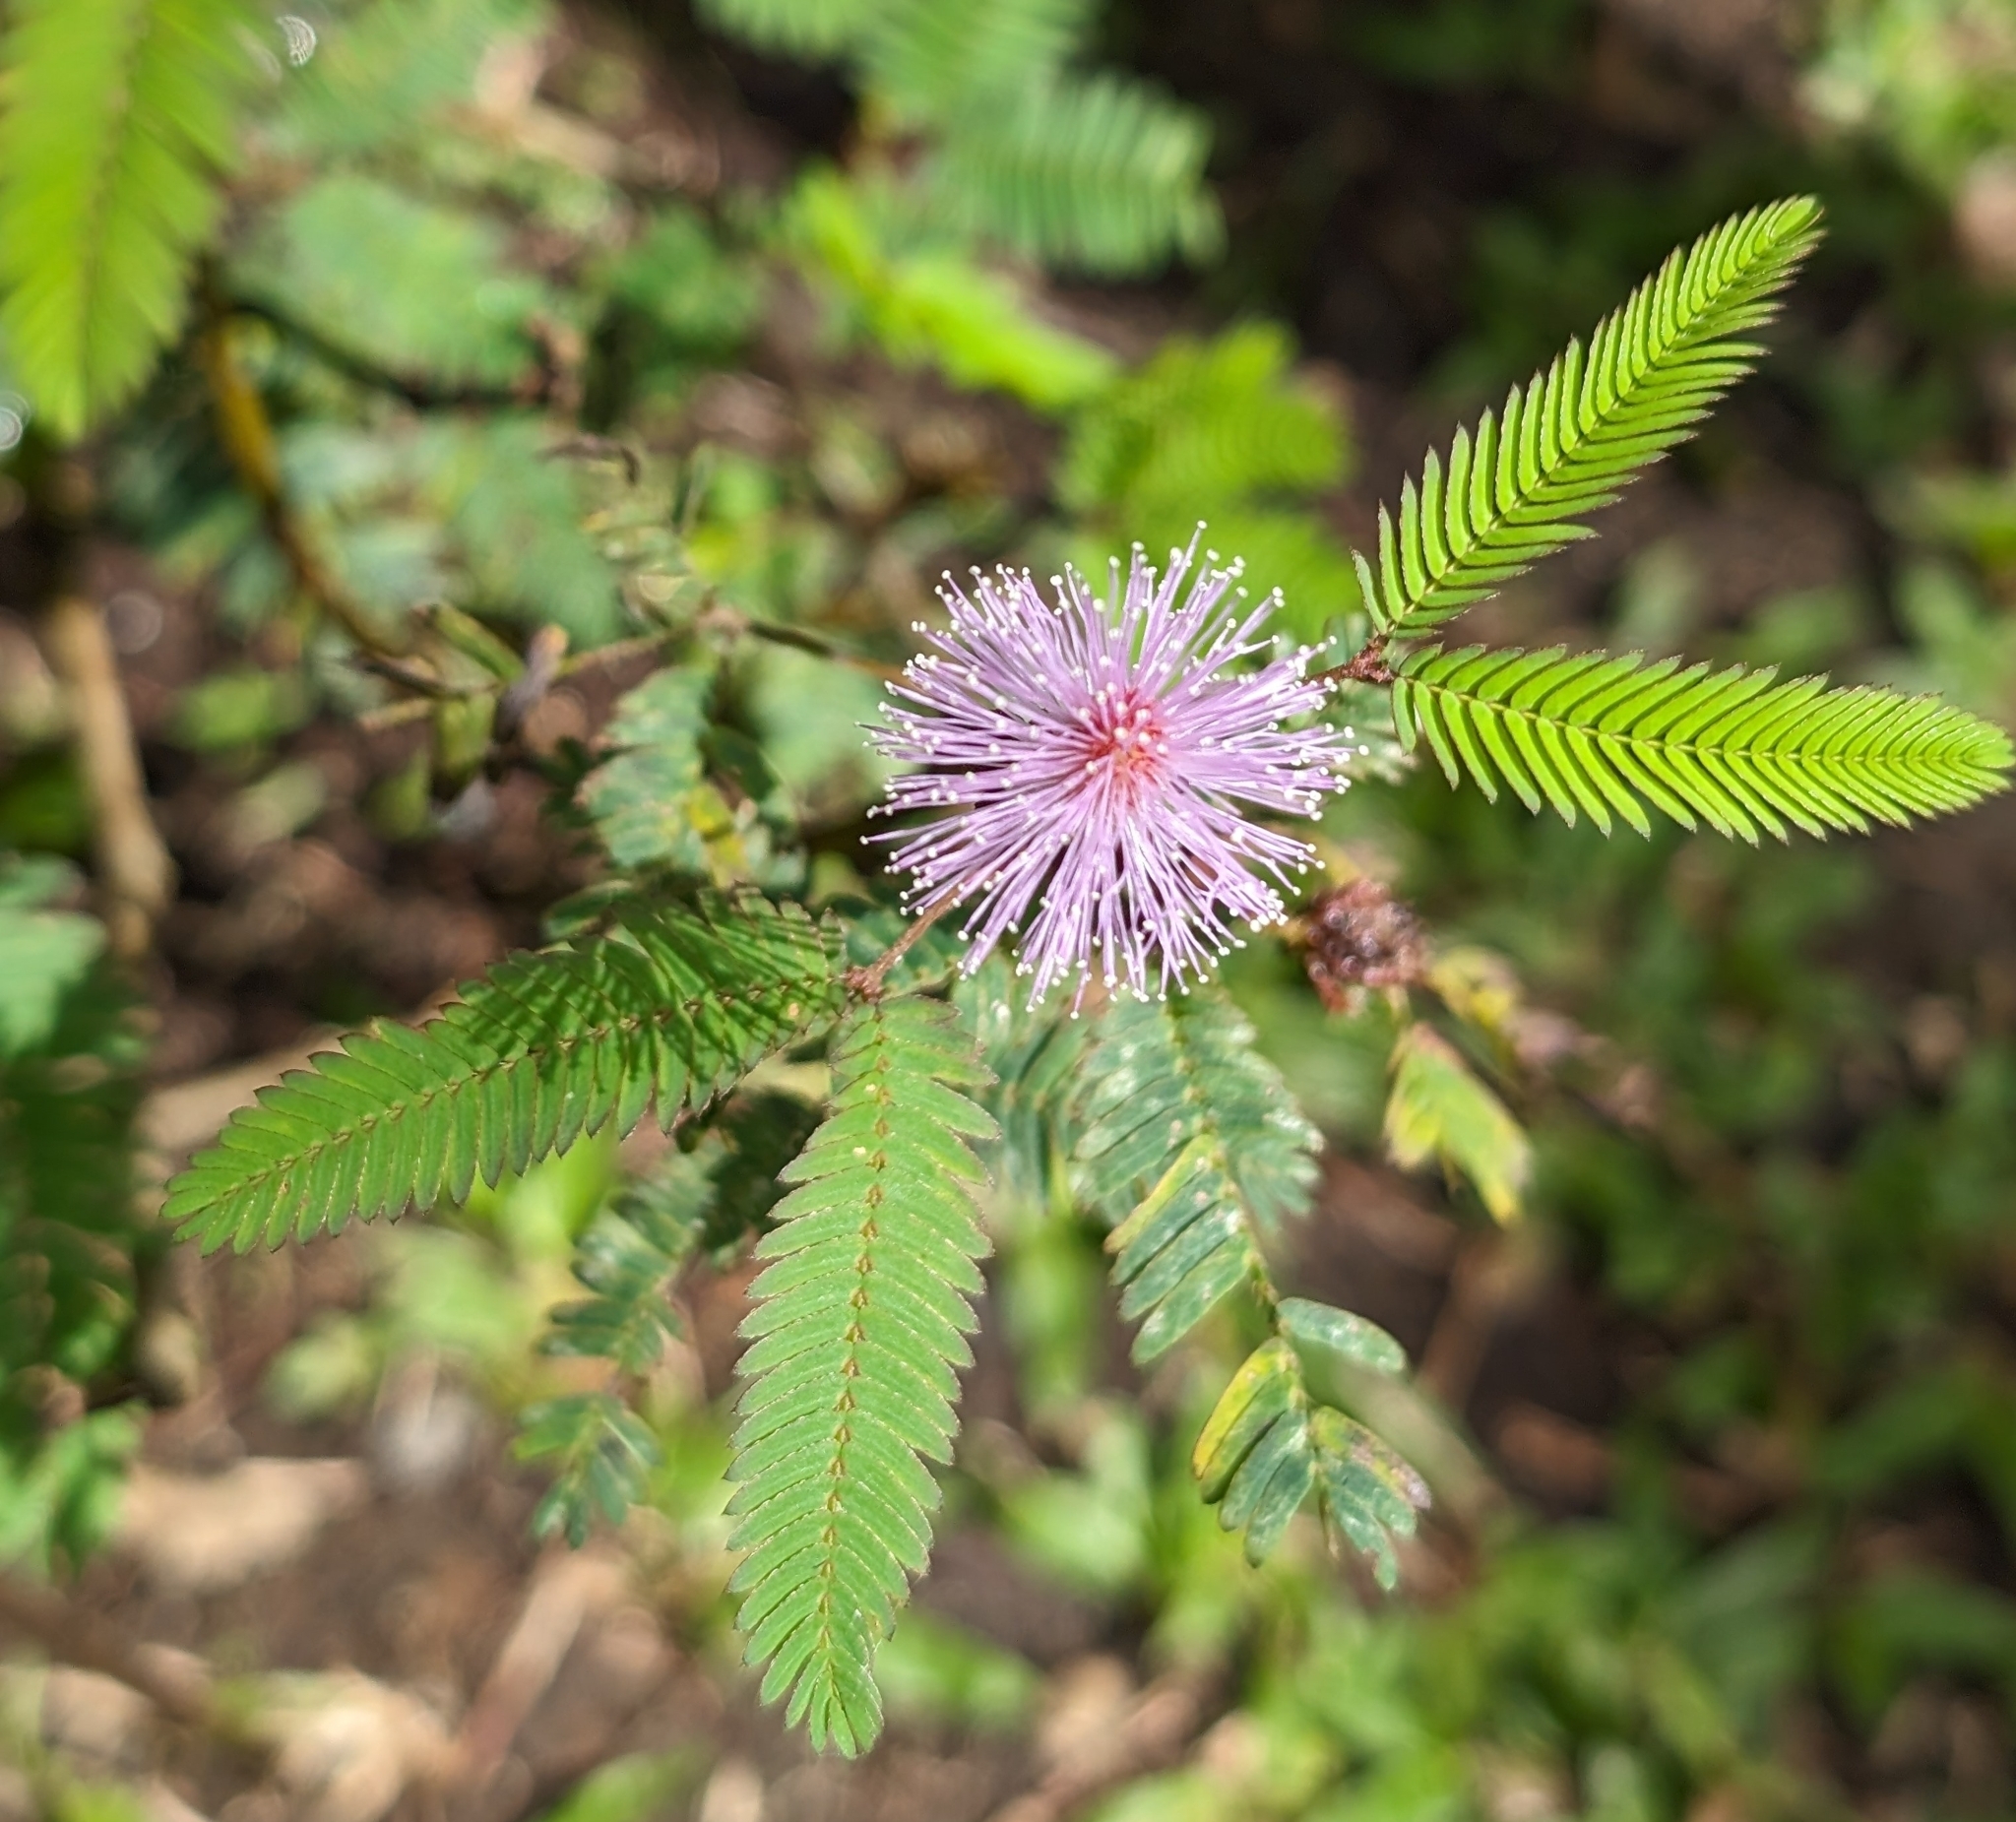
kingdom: Plantae
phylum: Tracheophyta
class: Magnoliopsida
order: Fabales
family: Fabaceae
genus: Mimosa
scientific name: Mimosa pudica
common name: Sensitive plant
